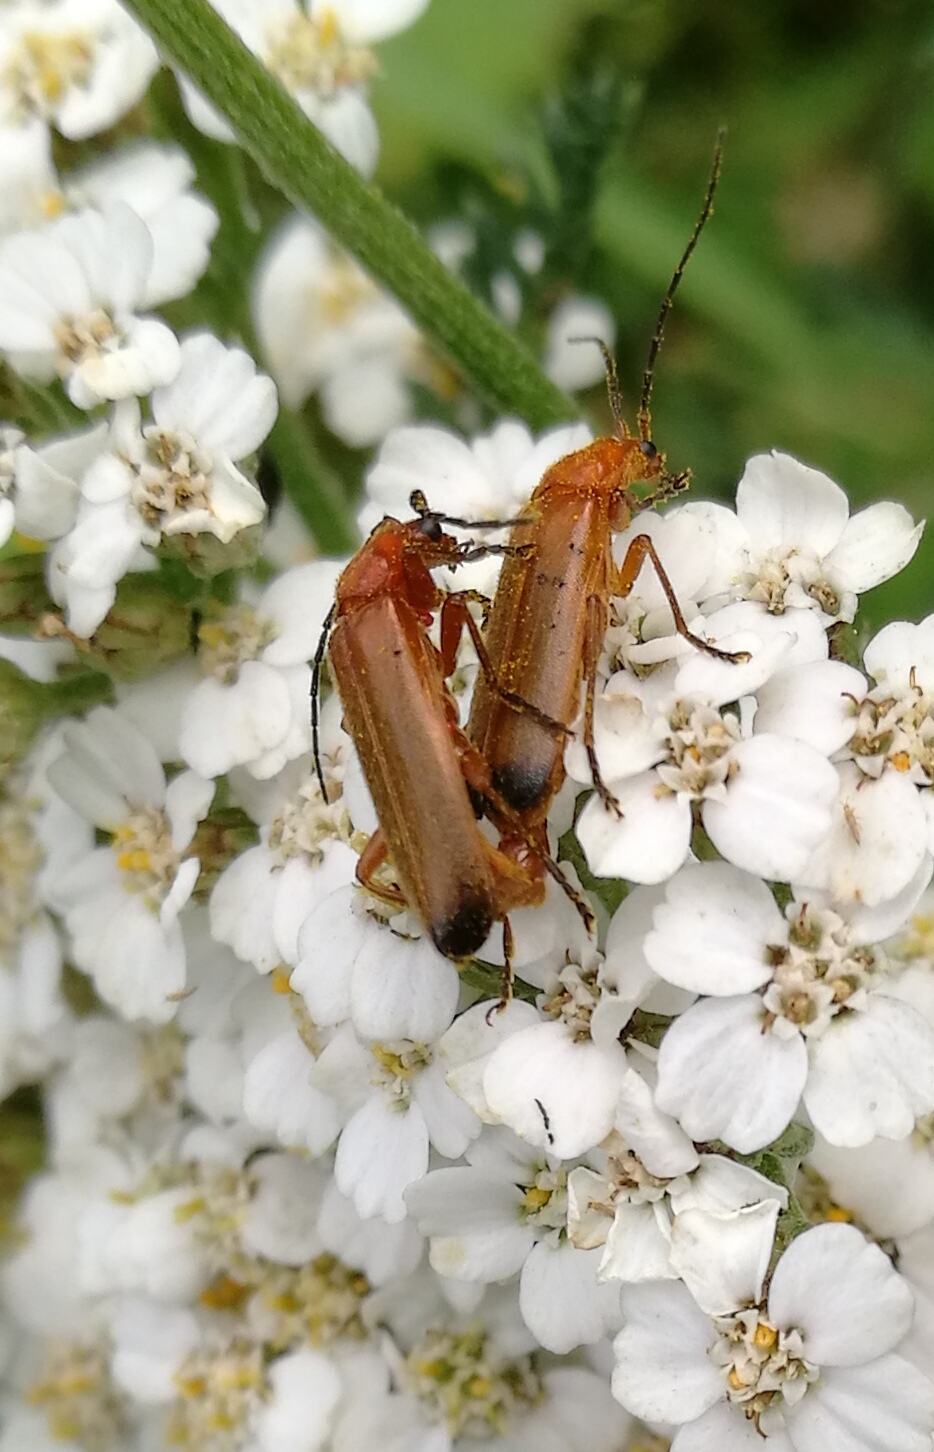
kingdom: Animalia
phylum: Arthropoda
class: Insecta
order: Coleoptera
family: Cantharidae
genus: Rhagonycha
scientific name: Rhagonycha fulva
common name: Common red soldier beetle
